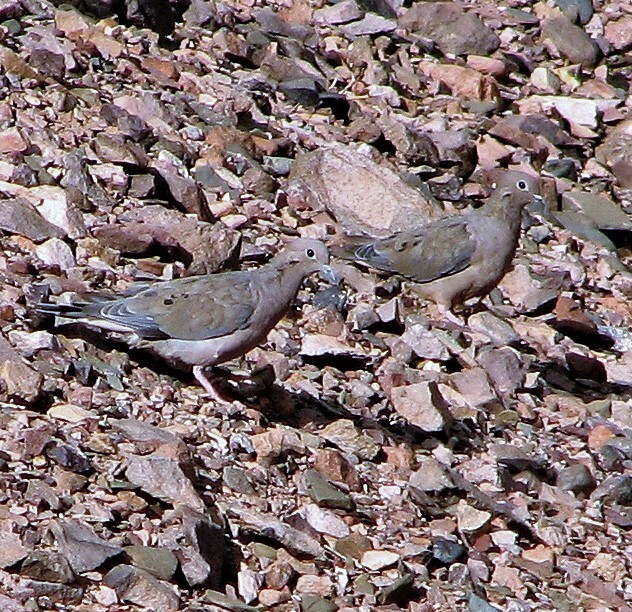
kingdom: Animalia
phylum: Chordata
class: Aves
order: Columbiformes
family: Columbidae
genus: Zenaida
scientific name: Zenaida auriculata
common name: Eared dove
